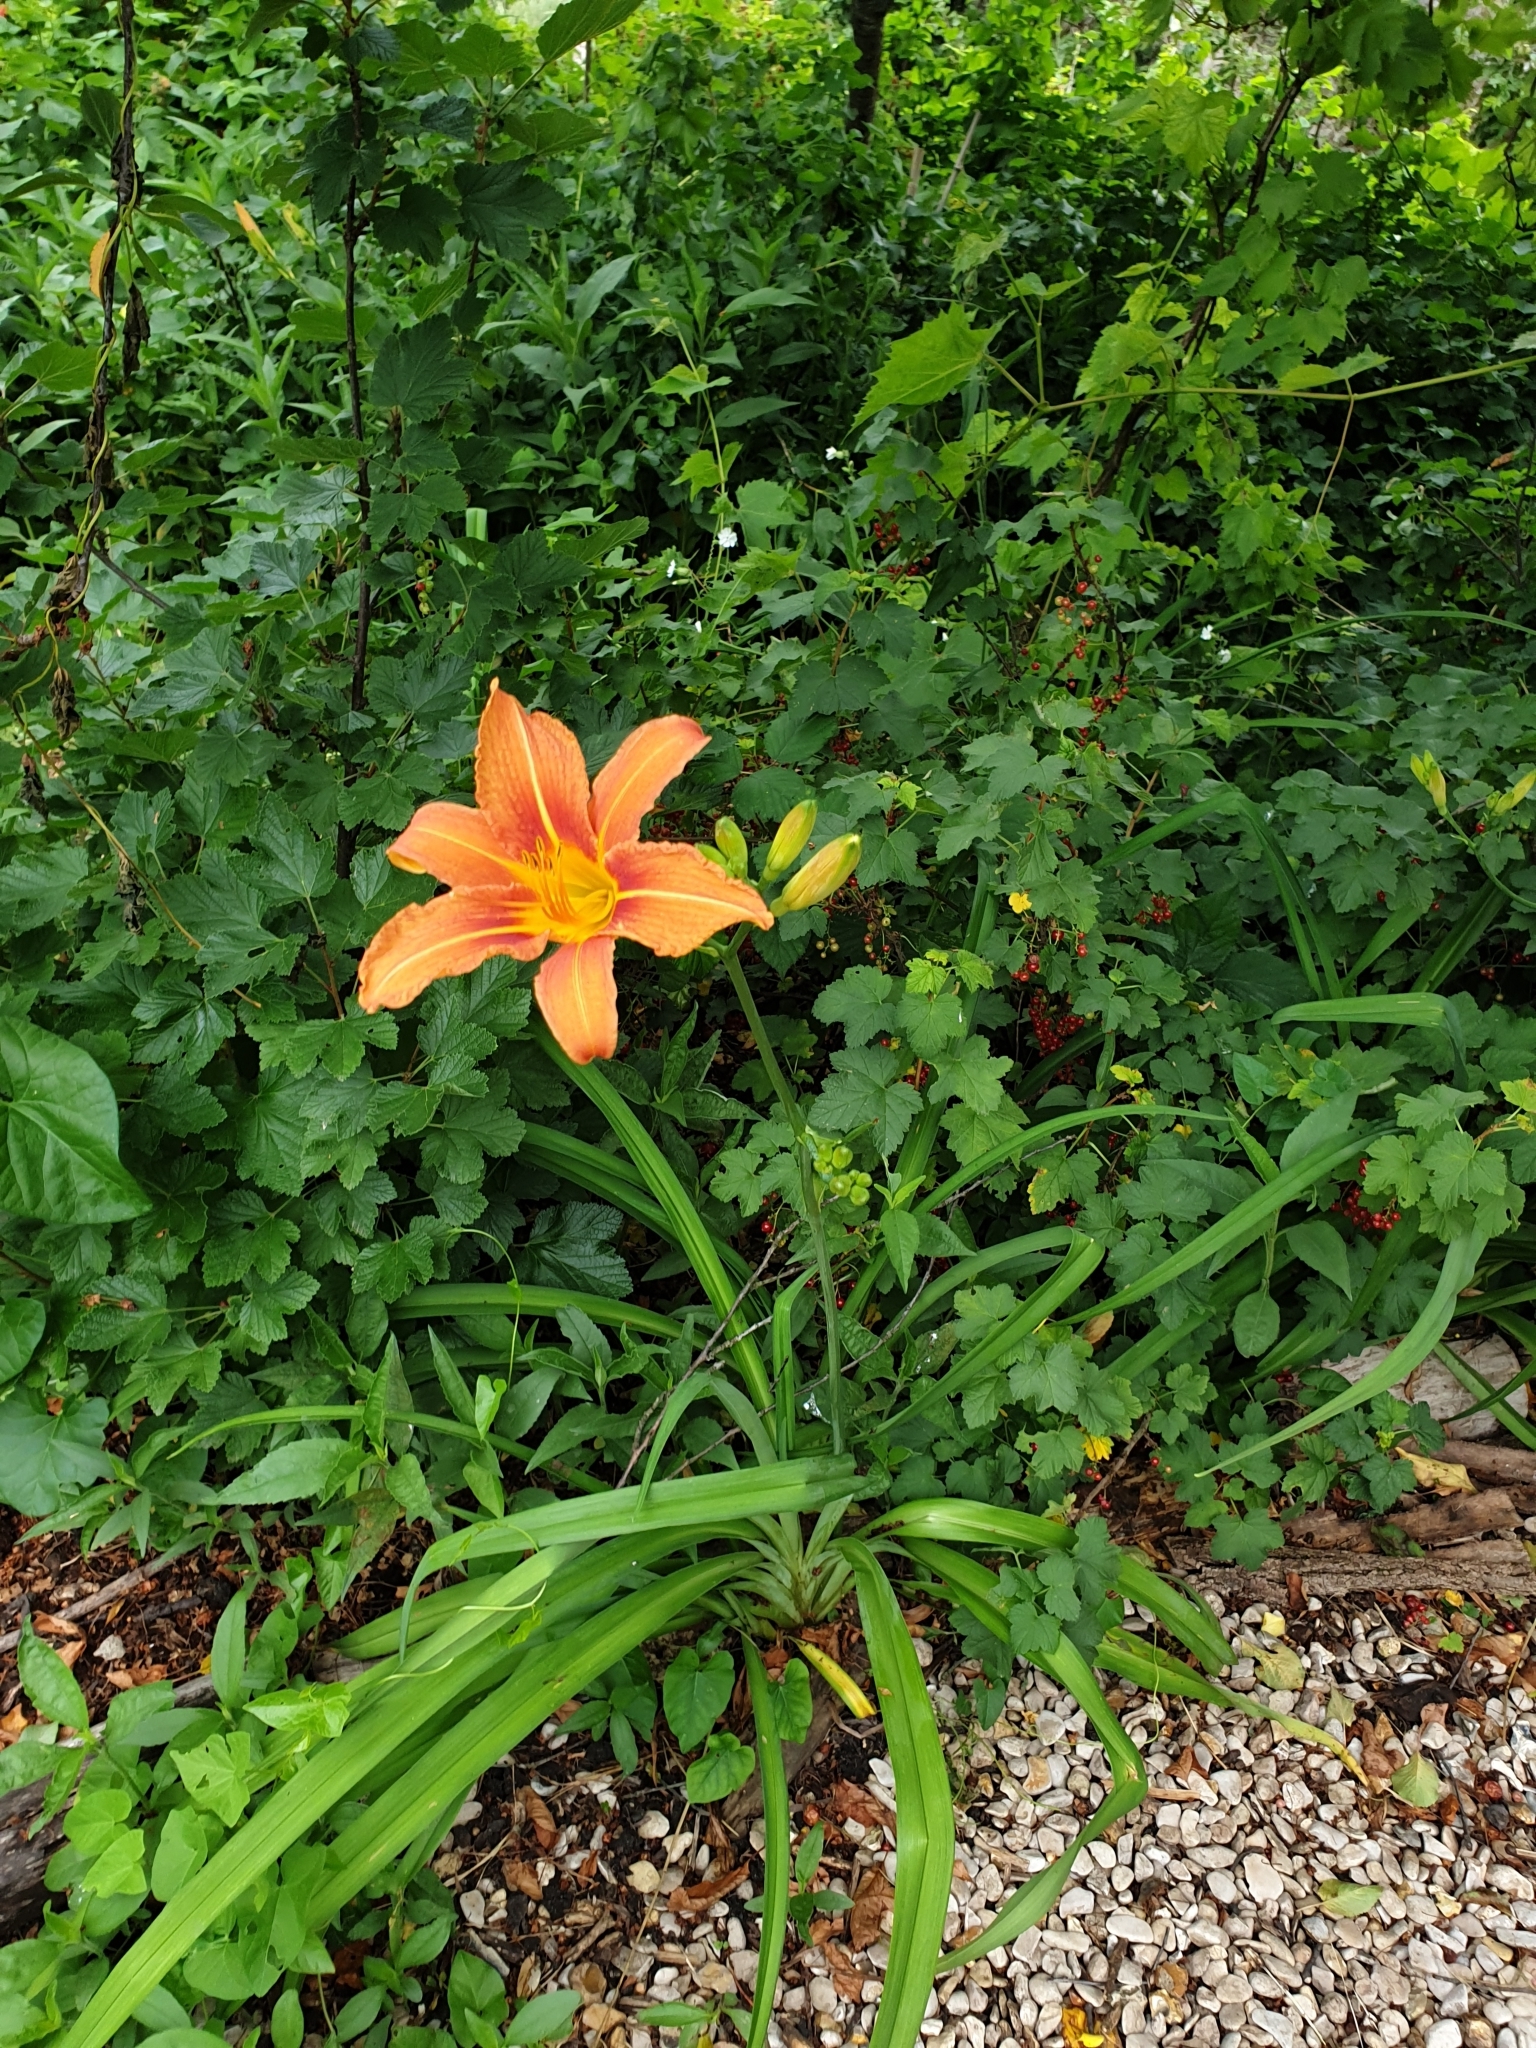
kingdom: Plantae
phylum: Tracheophyta
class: Liliopsida
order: Asparagales
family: Asphodelaceae
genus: Hemerocallis
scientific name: Hemerocallis fulva
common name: Orange day-lily
